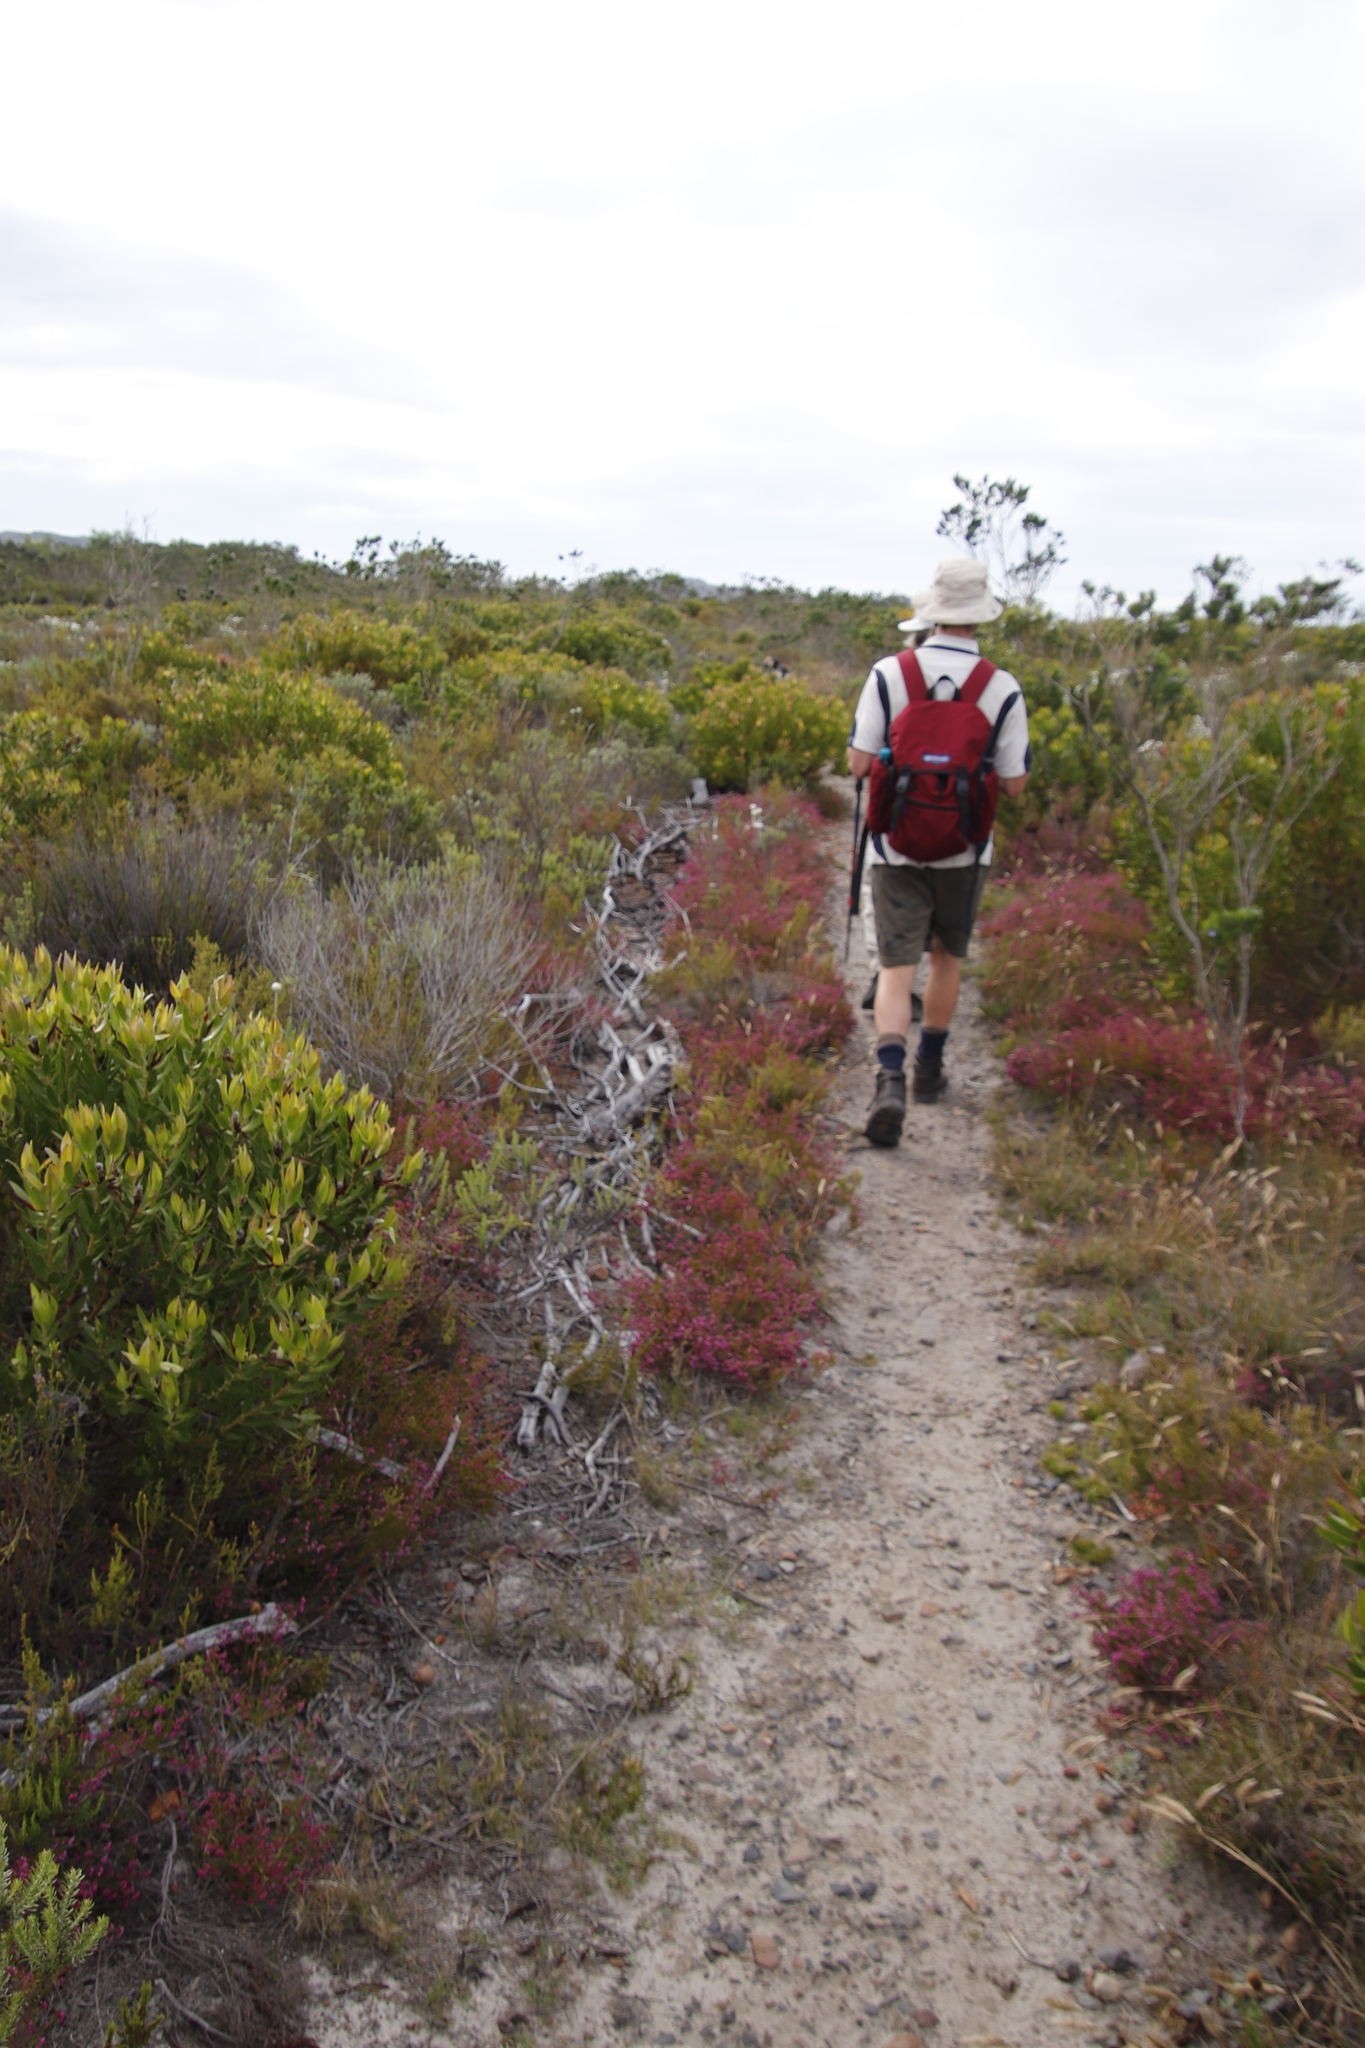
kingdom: Plantae
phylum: Tracheophyta
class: Magnoliopsida
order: Ericales
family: Ericaceae
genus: Erica
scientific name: Erica multumbellifera
